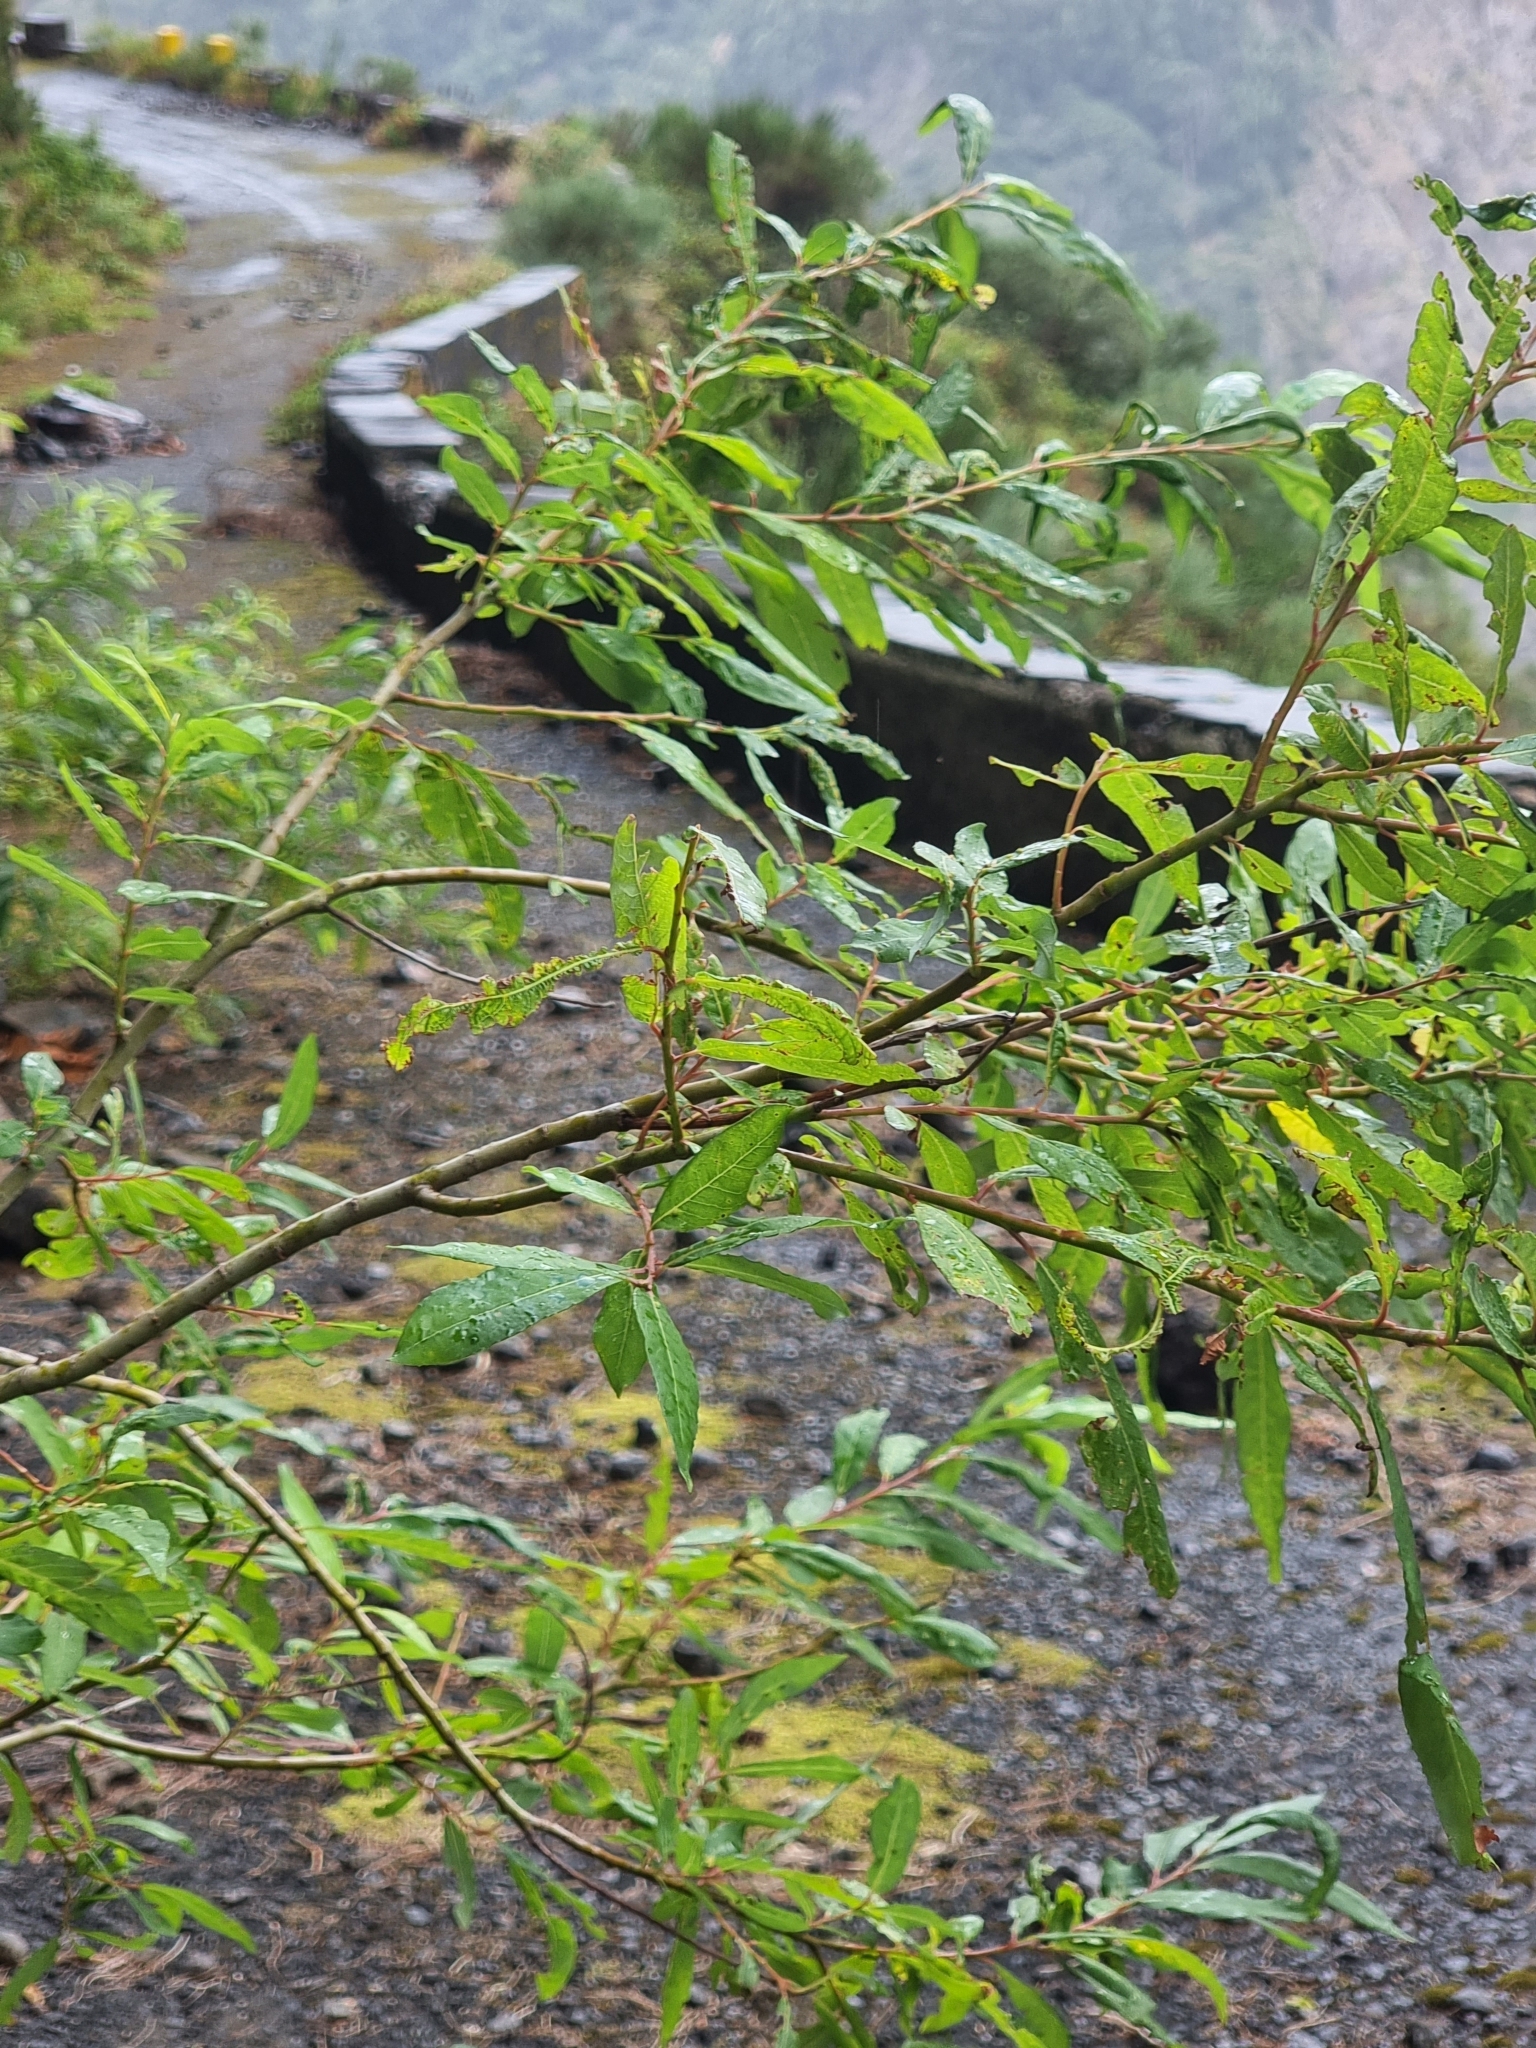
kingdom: Plantae
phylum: Tracheophyta
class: Magnoliopsida
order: Malpighiales
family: Salicaceae
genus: Salix
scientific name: Salix canariensis
